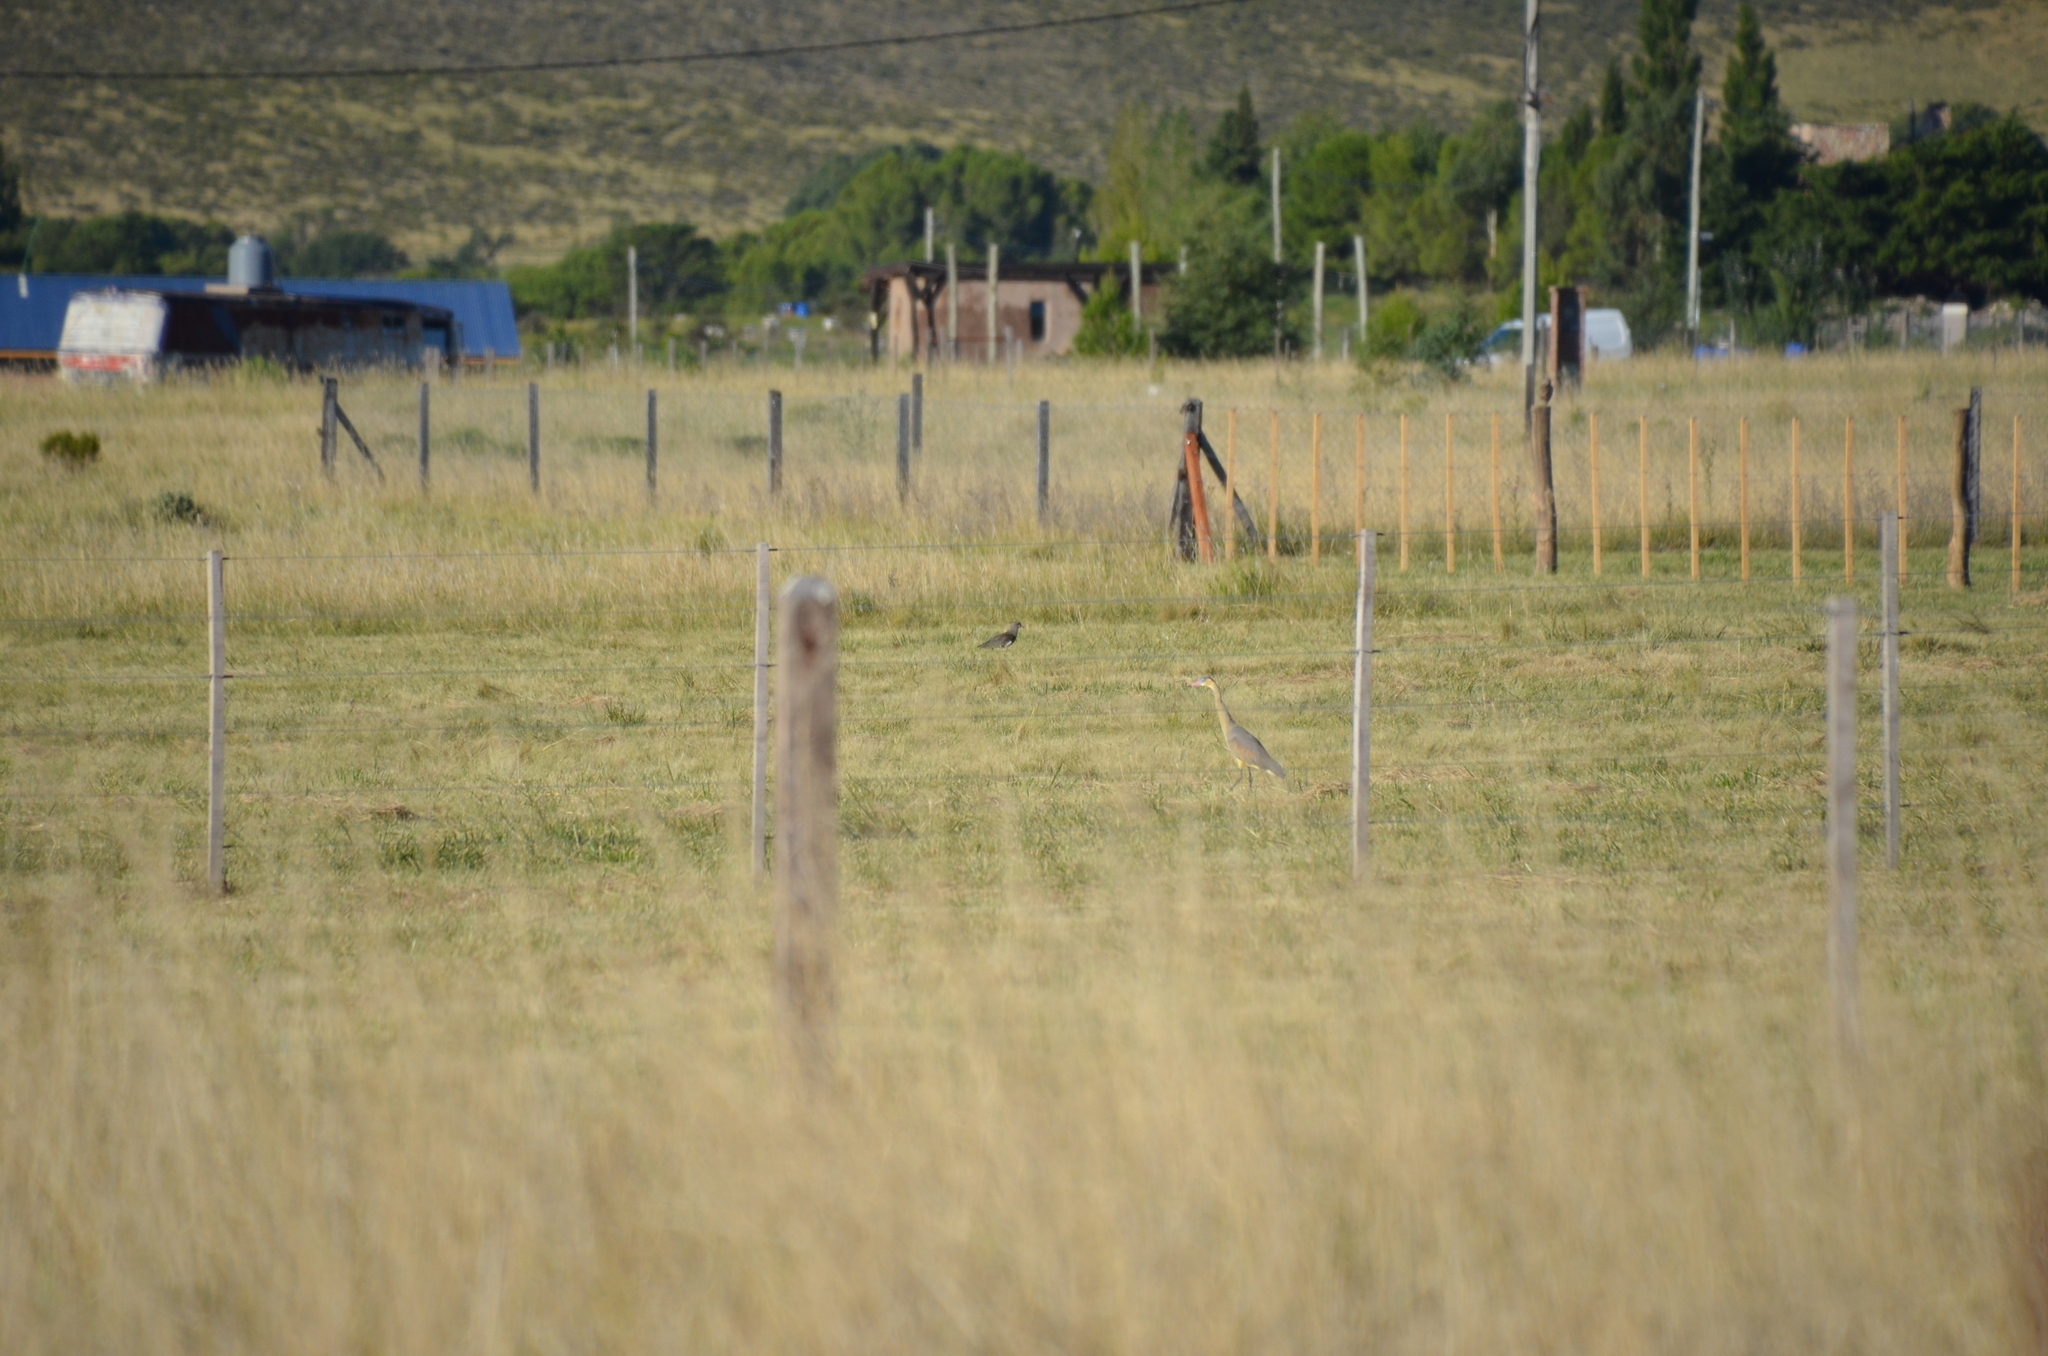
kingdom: Animalia
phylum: Chordata
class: Aves
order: Charadriiformes
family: Charadriidae
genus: Vanellus
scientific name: Vanellus chilensis
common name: Southern lapwing
